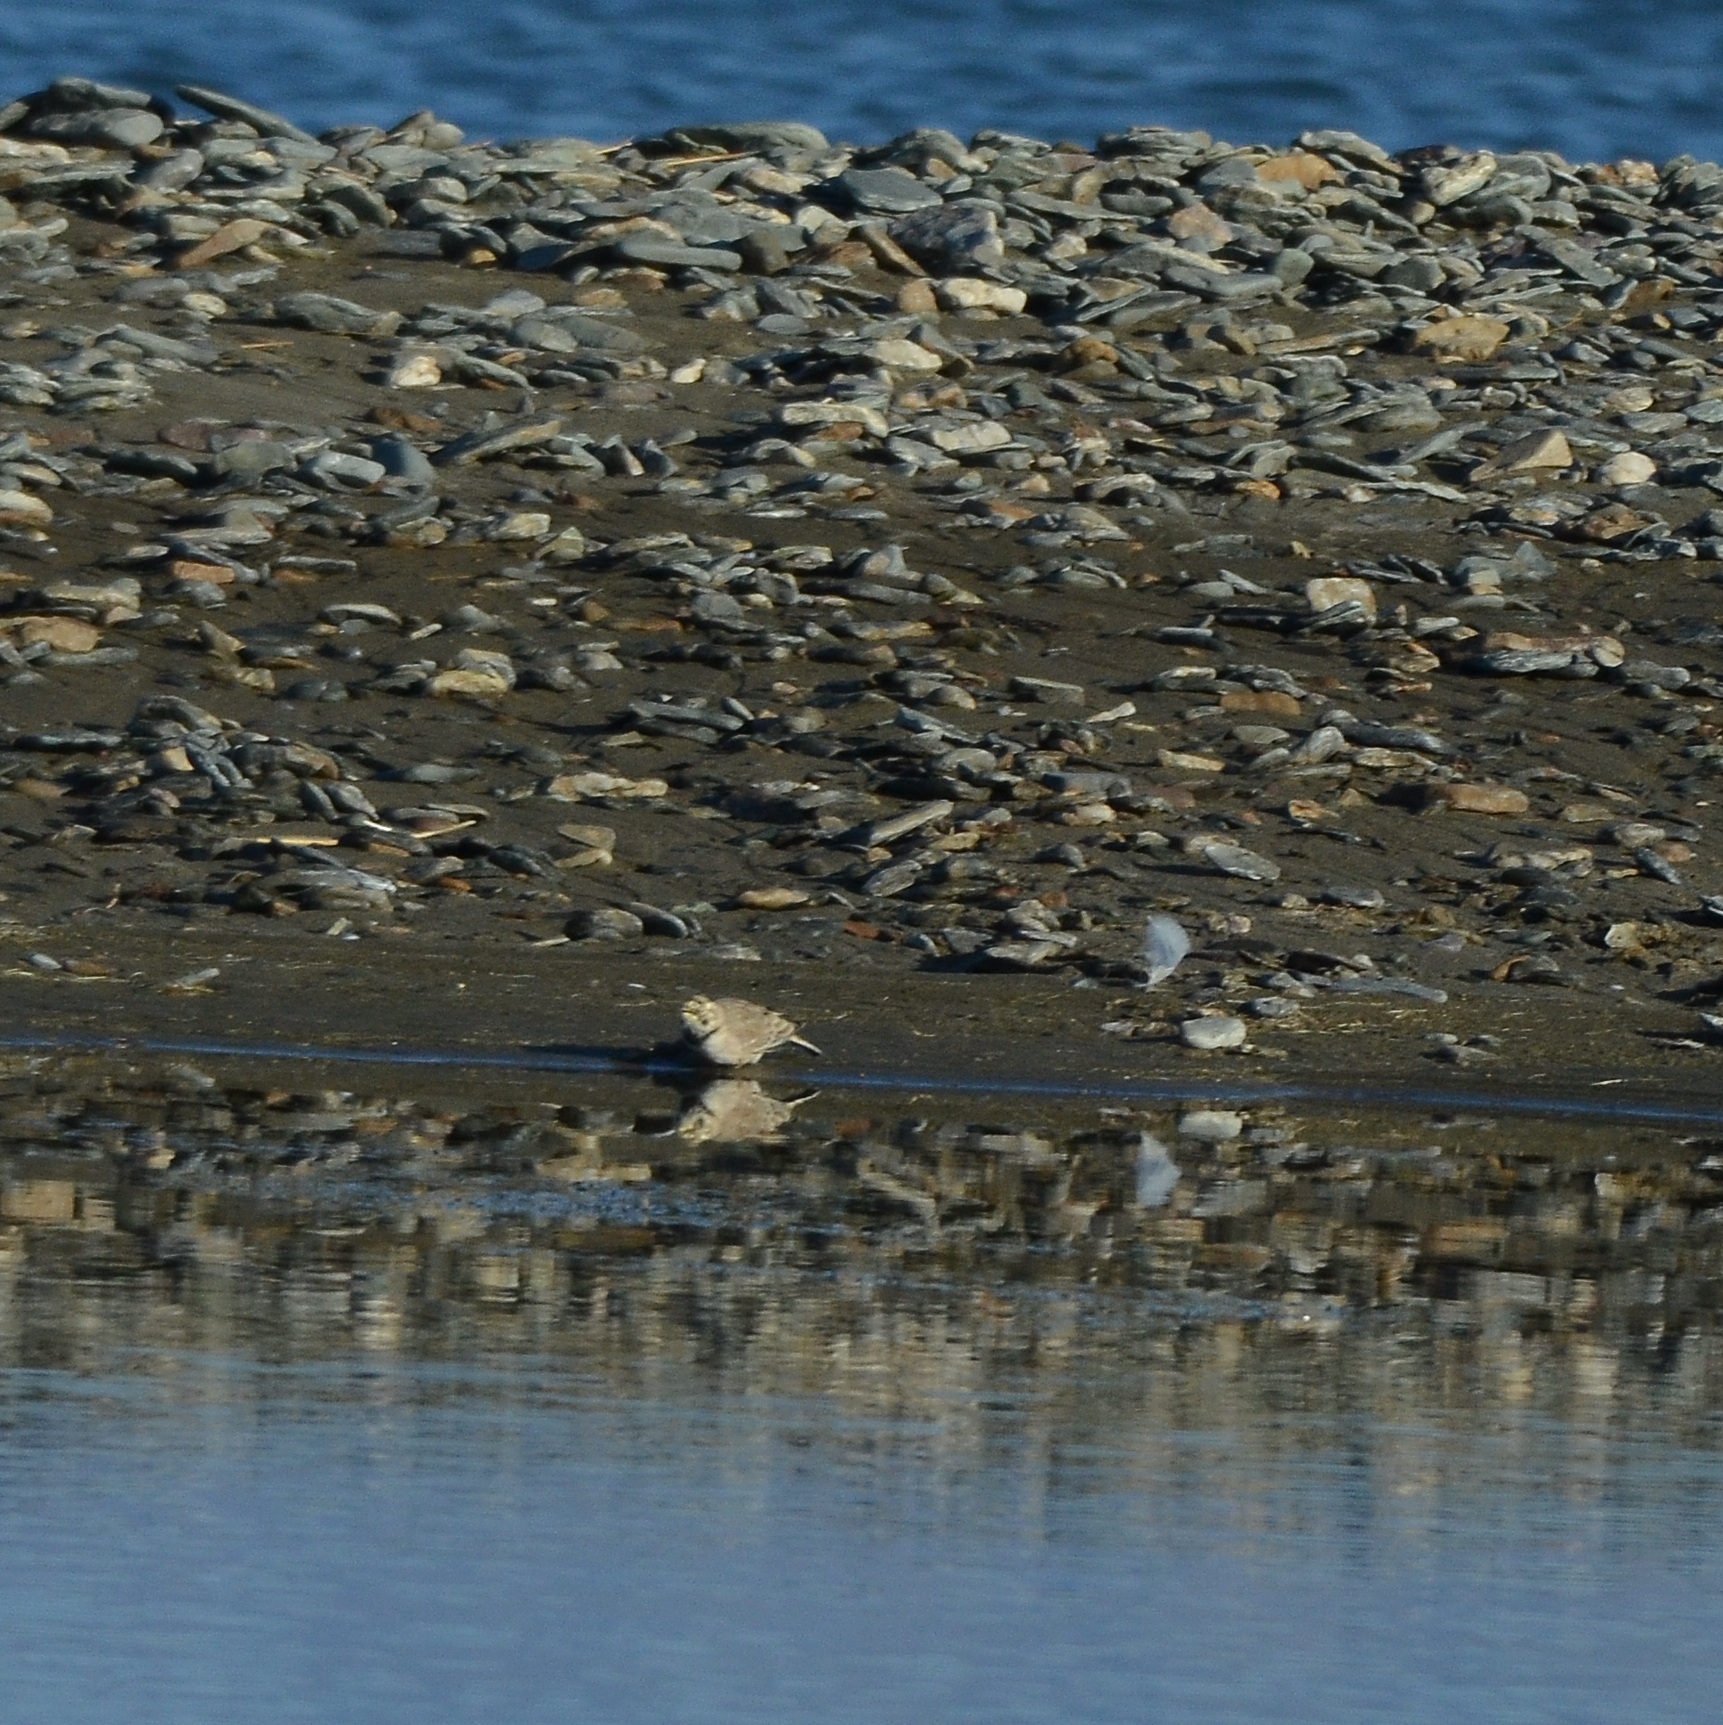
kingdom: Animalia
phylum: Chordata
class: Aves
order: Passeriformes
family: Alaudidae
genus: Eremophila
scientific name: Eremophila alpestris
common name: Horned lark
